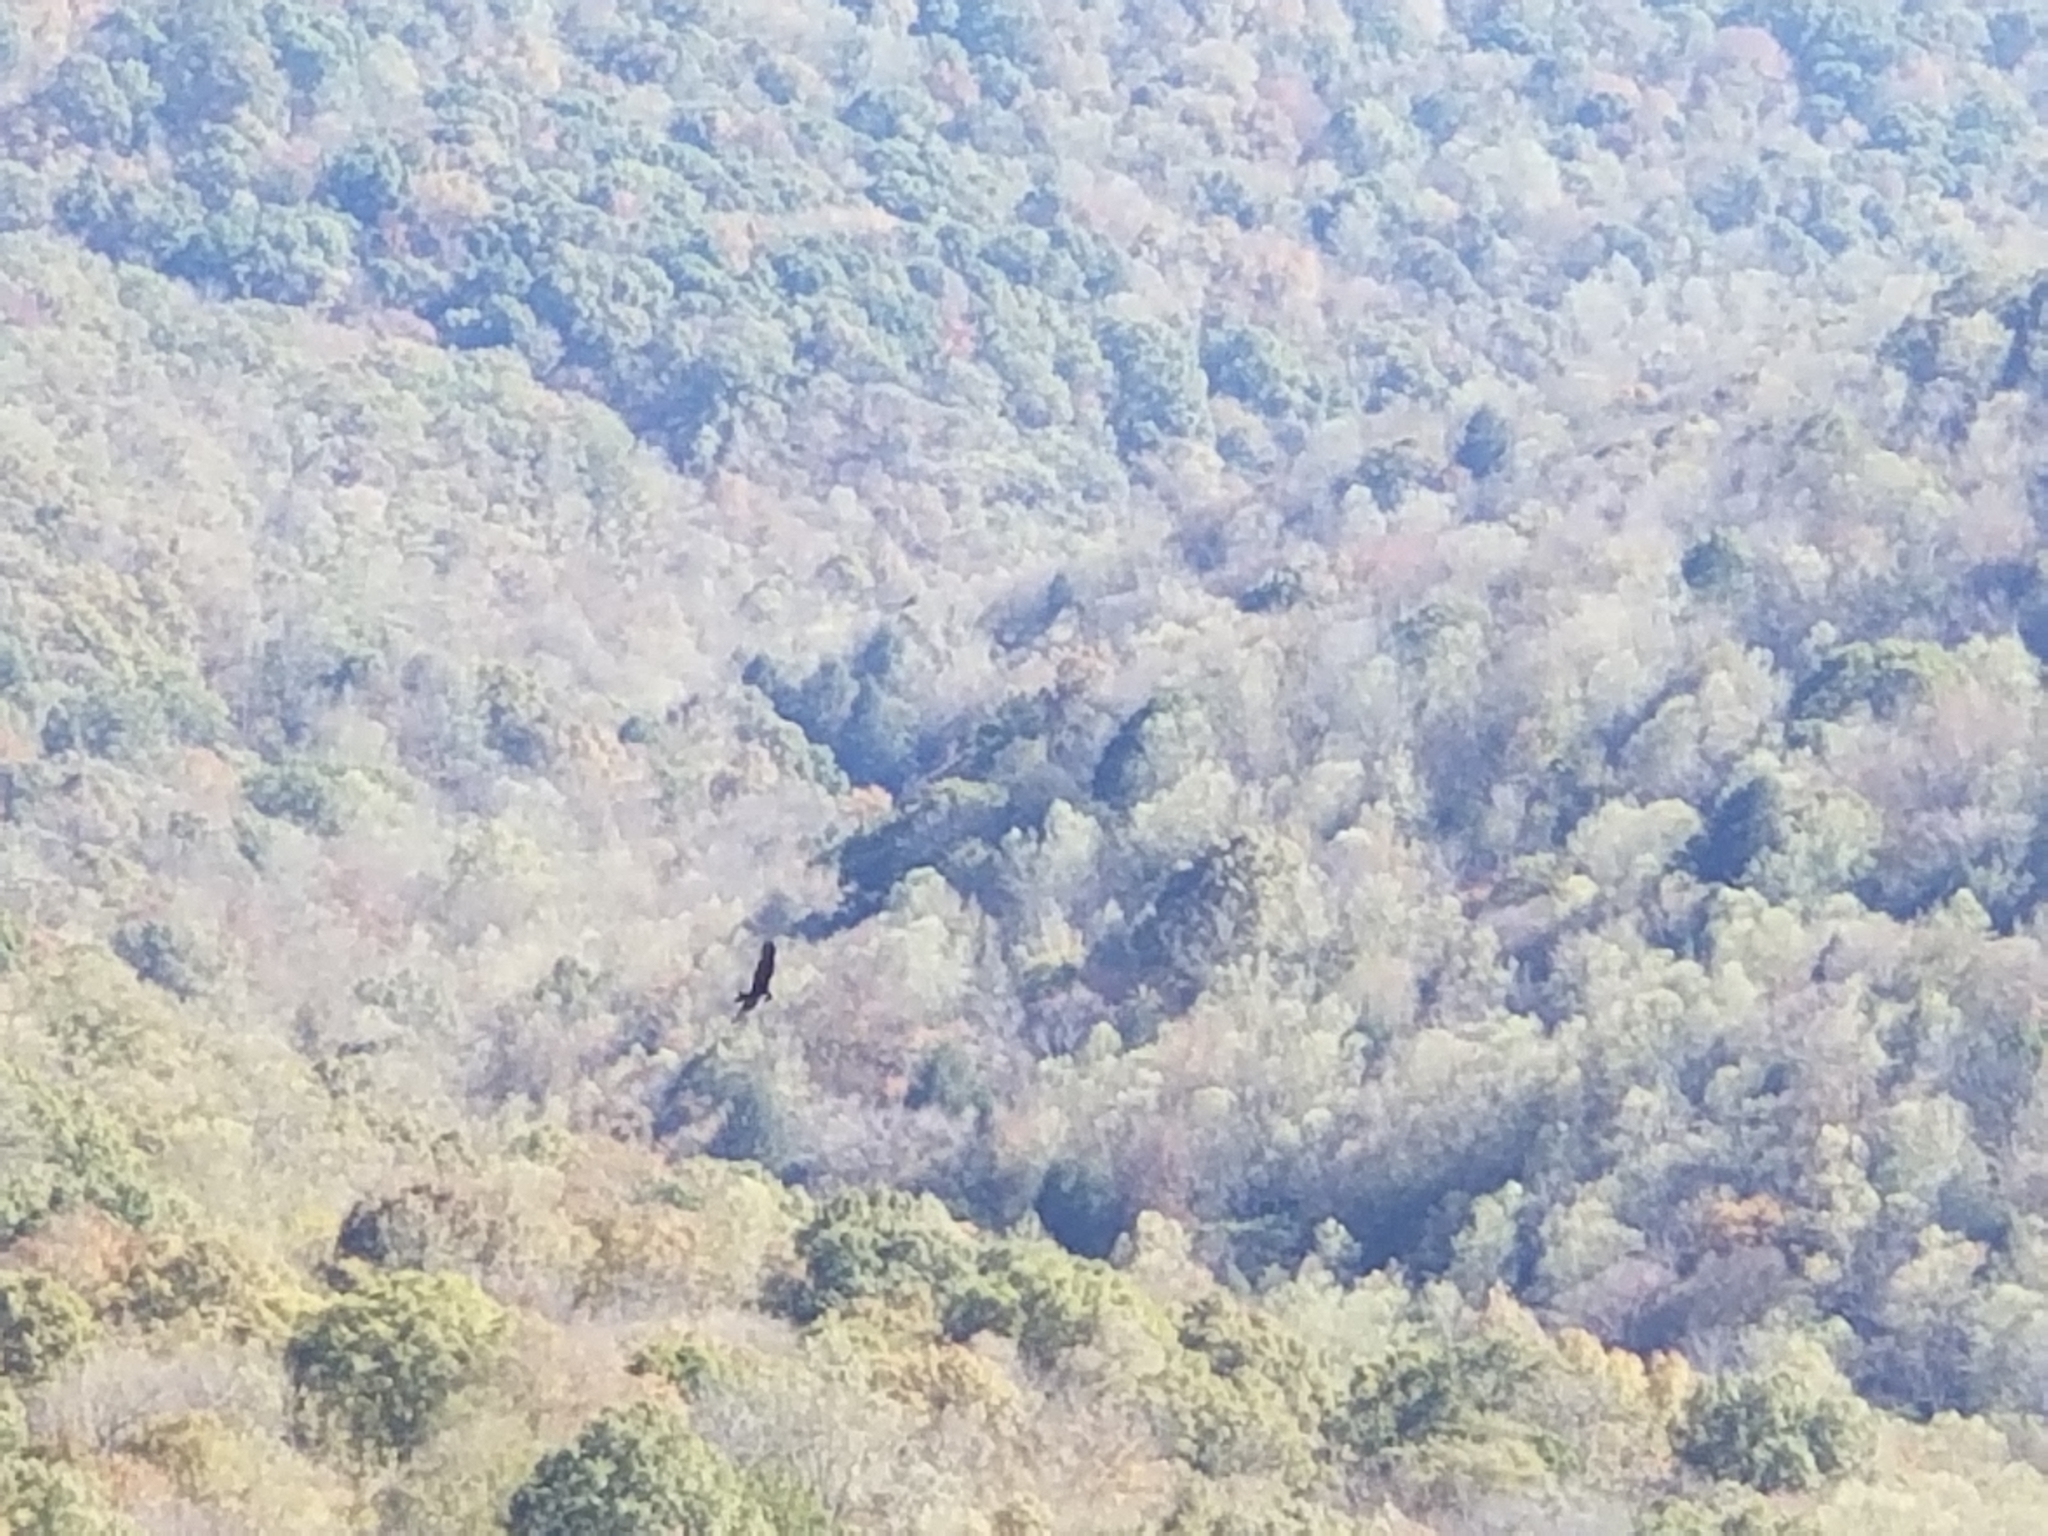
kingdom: Animalia
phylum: Chordata
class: Aves
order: Accipitriformes
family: Cathartidae
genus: Cathartes
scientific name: Cathartes aura
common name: Turkey vulture
